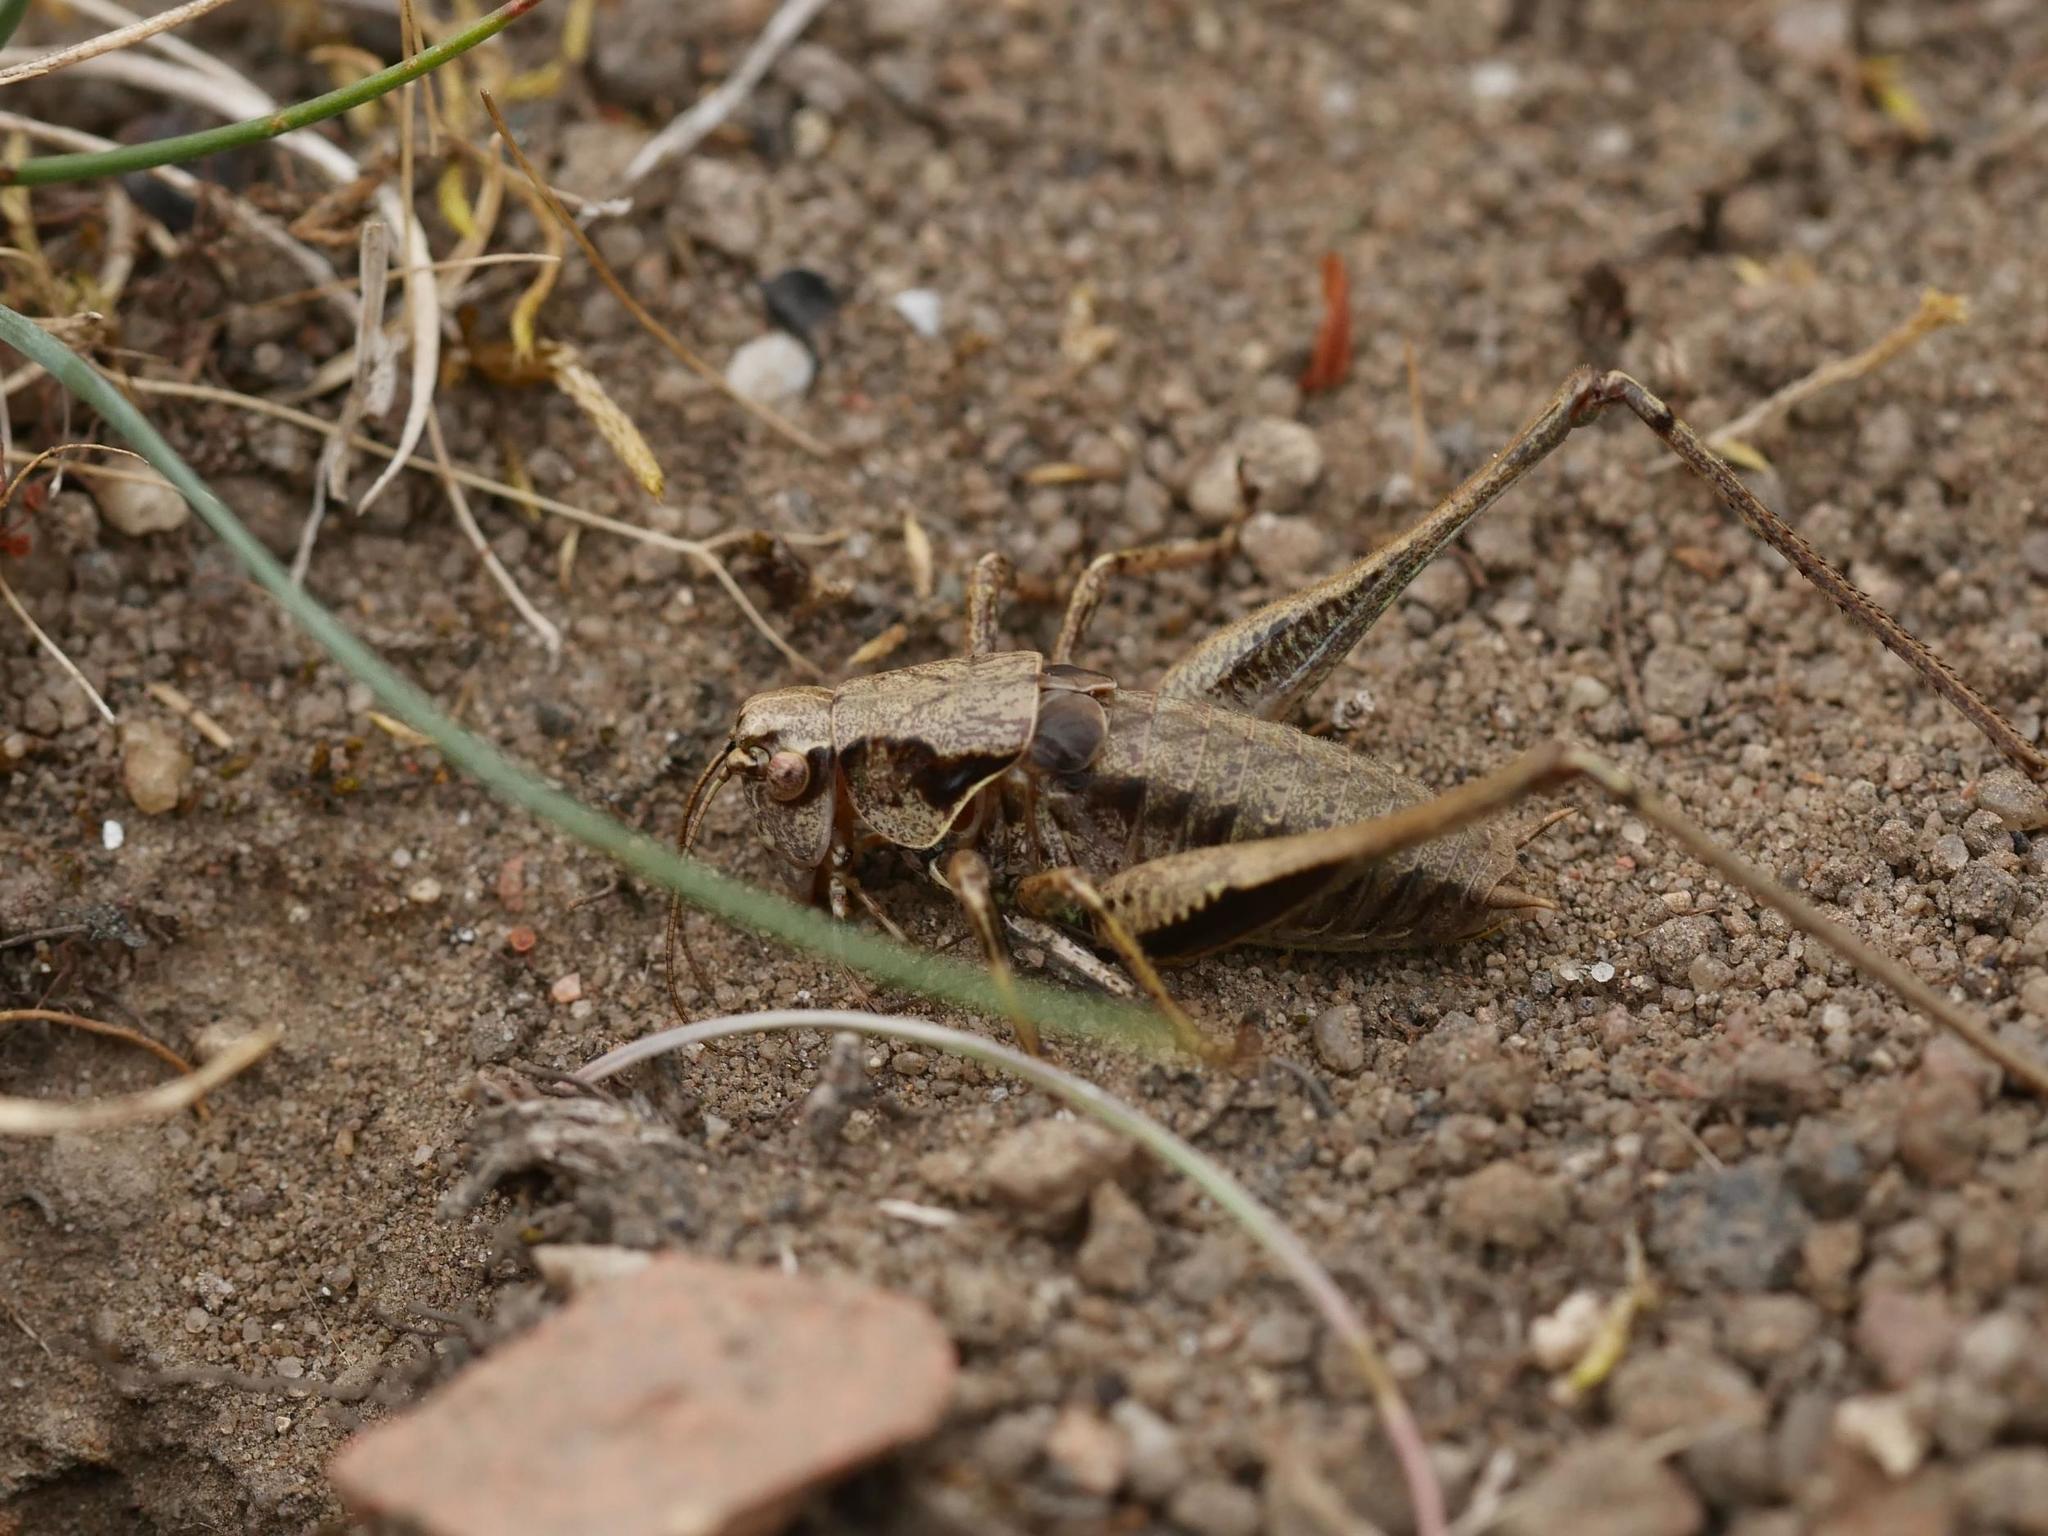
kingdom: Animalia
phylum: Arthropoda
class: Insecta
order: Orthoptera
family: Tettigoniidae
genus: Pholidoptera
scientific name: Pholidoptera griseoaptera
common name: Dark bush-cricket
